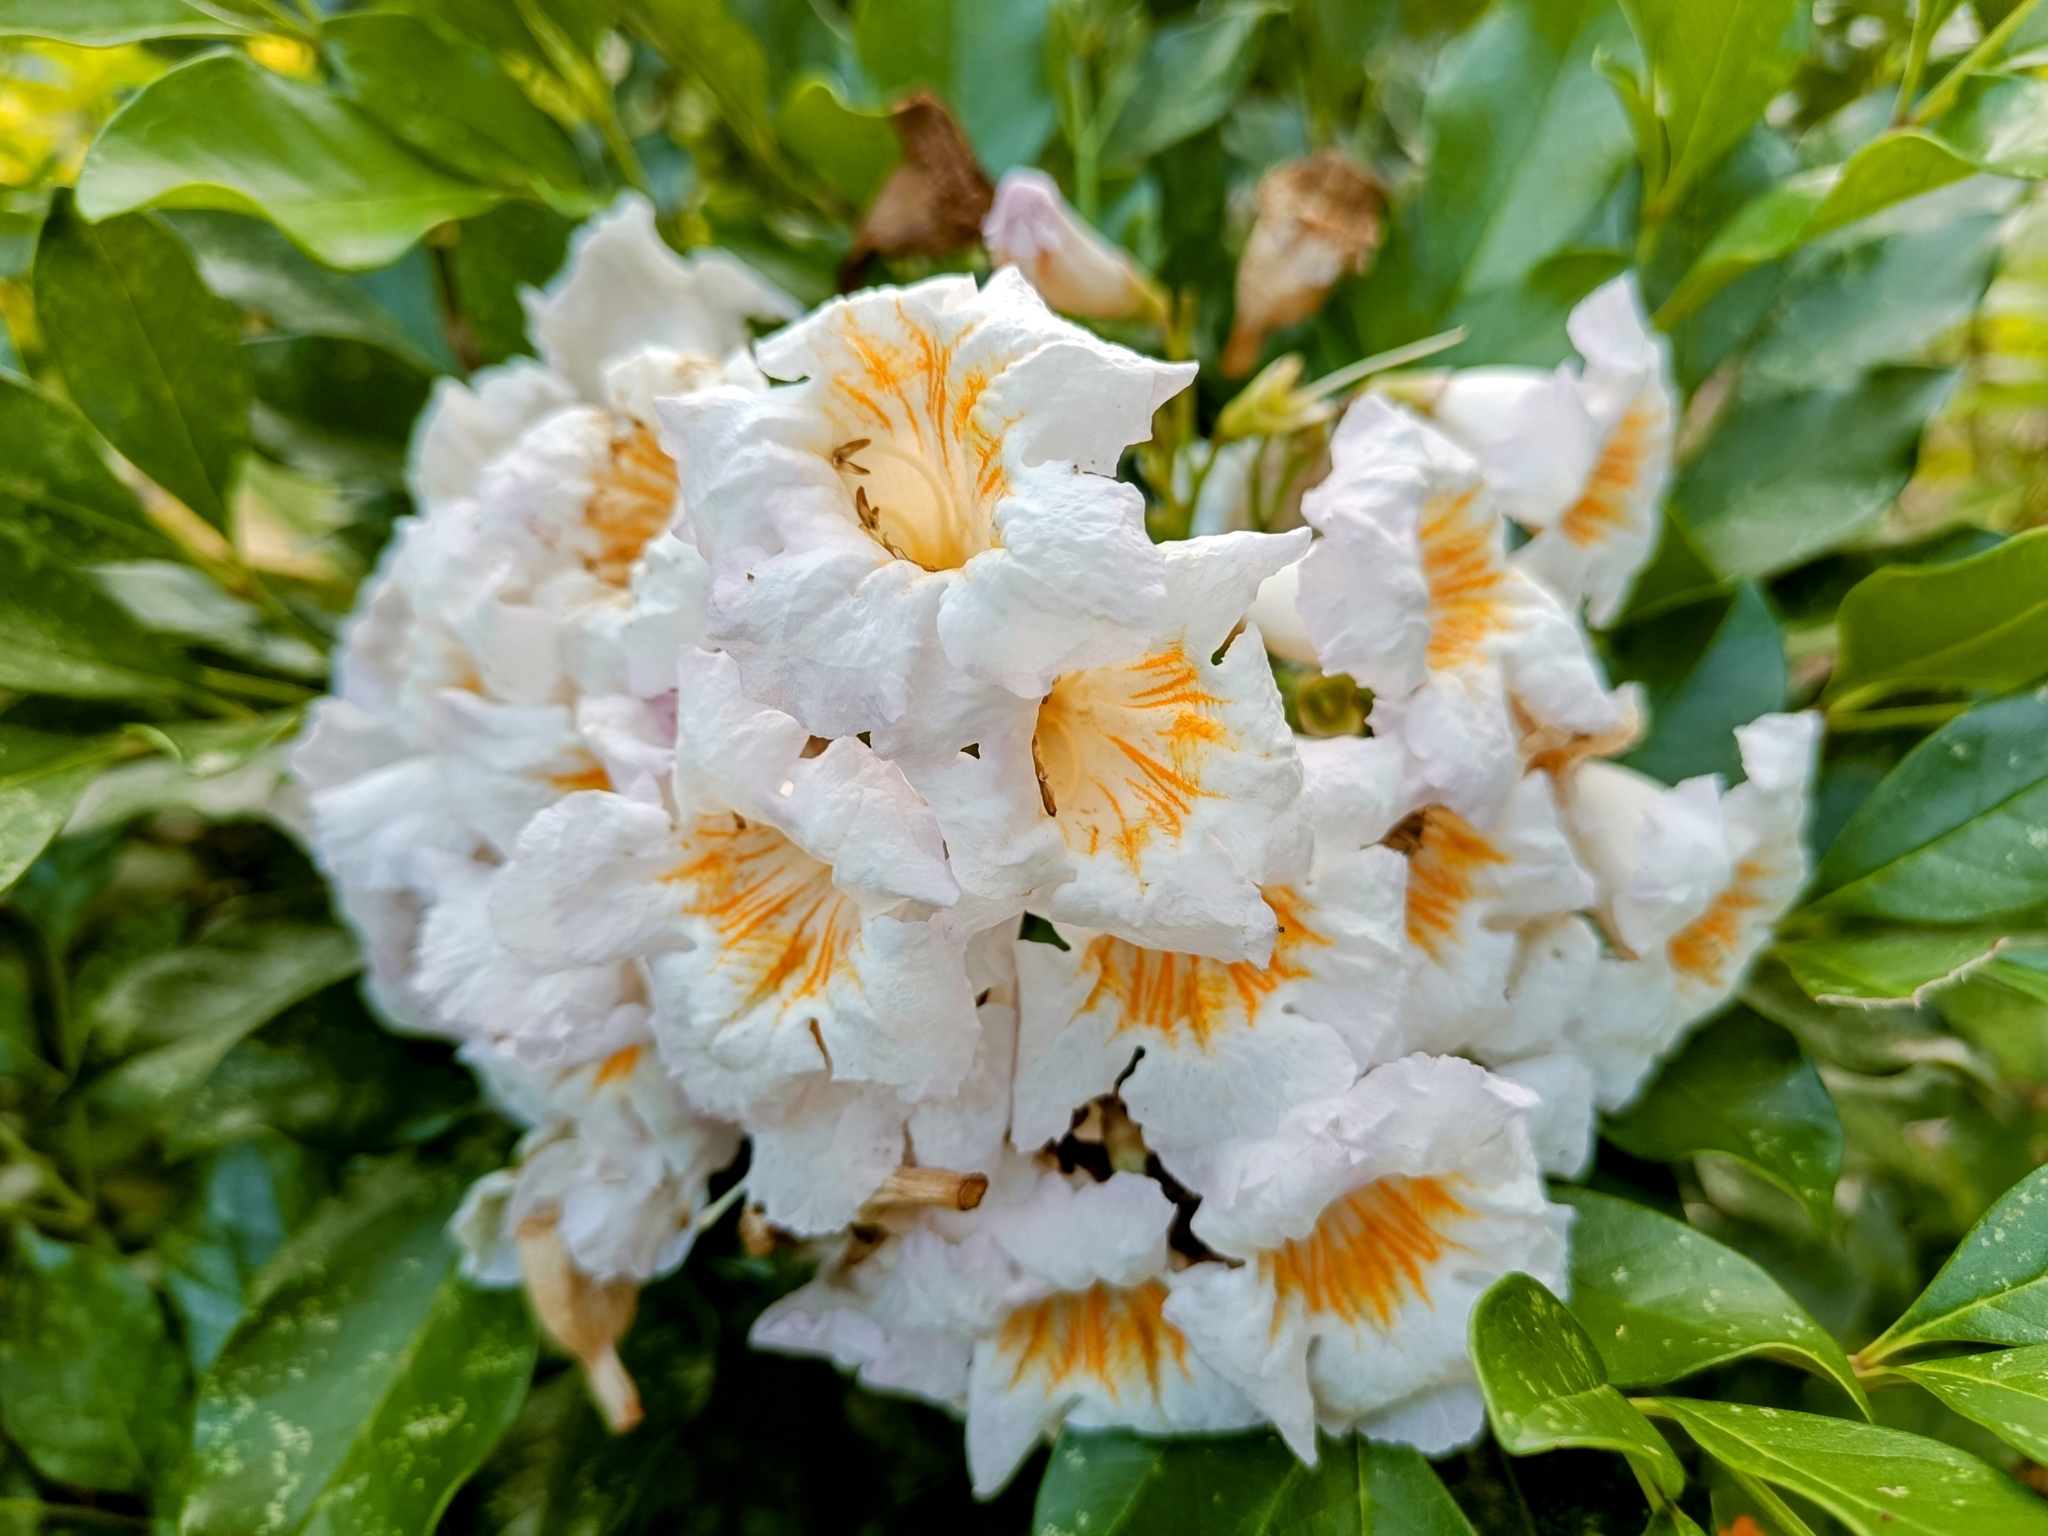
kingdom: Plantae
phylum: Tracheophyta
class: Magnoliopsida
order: Lamiales
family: Bignoniaceae
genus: Radermachera
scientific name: Radermachera yunnanensis
